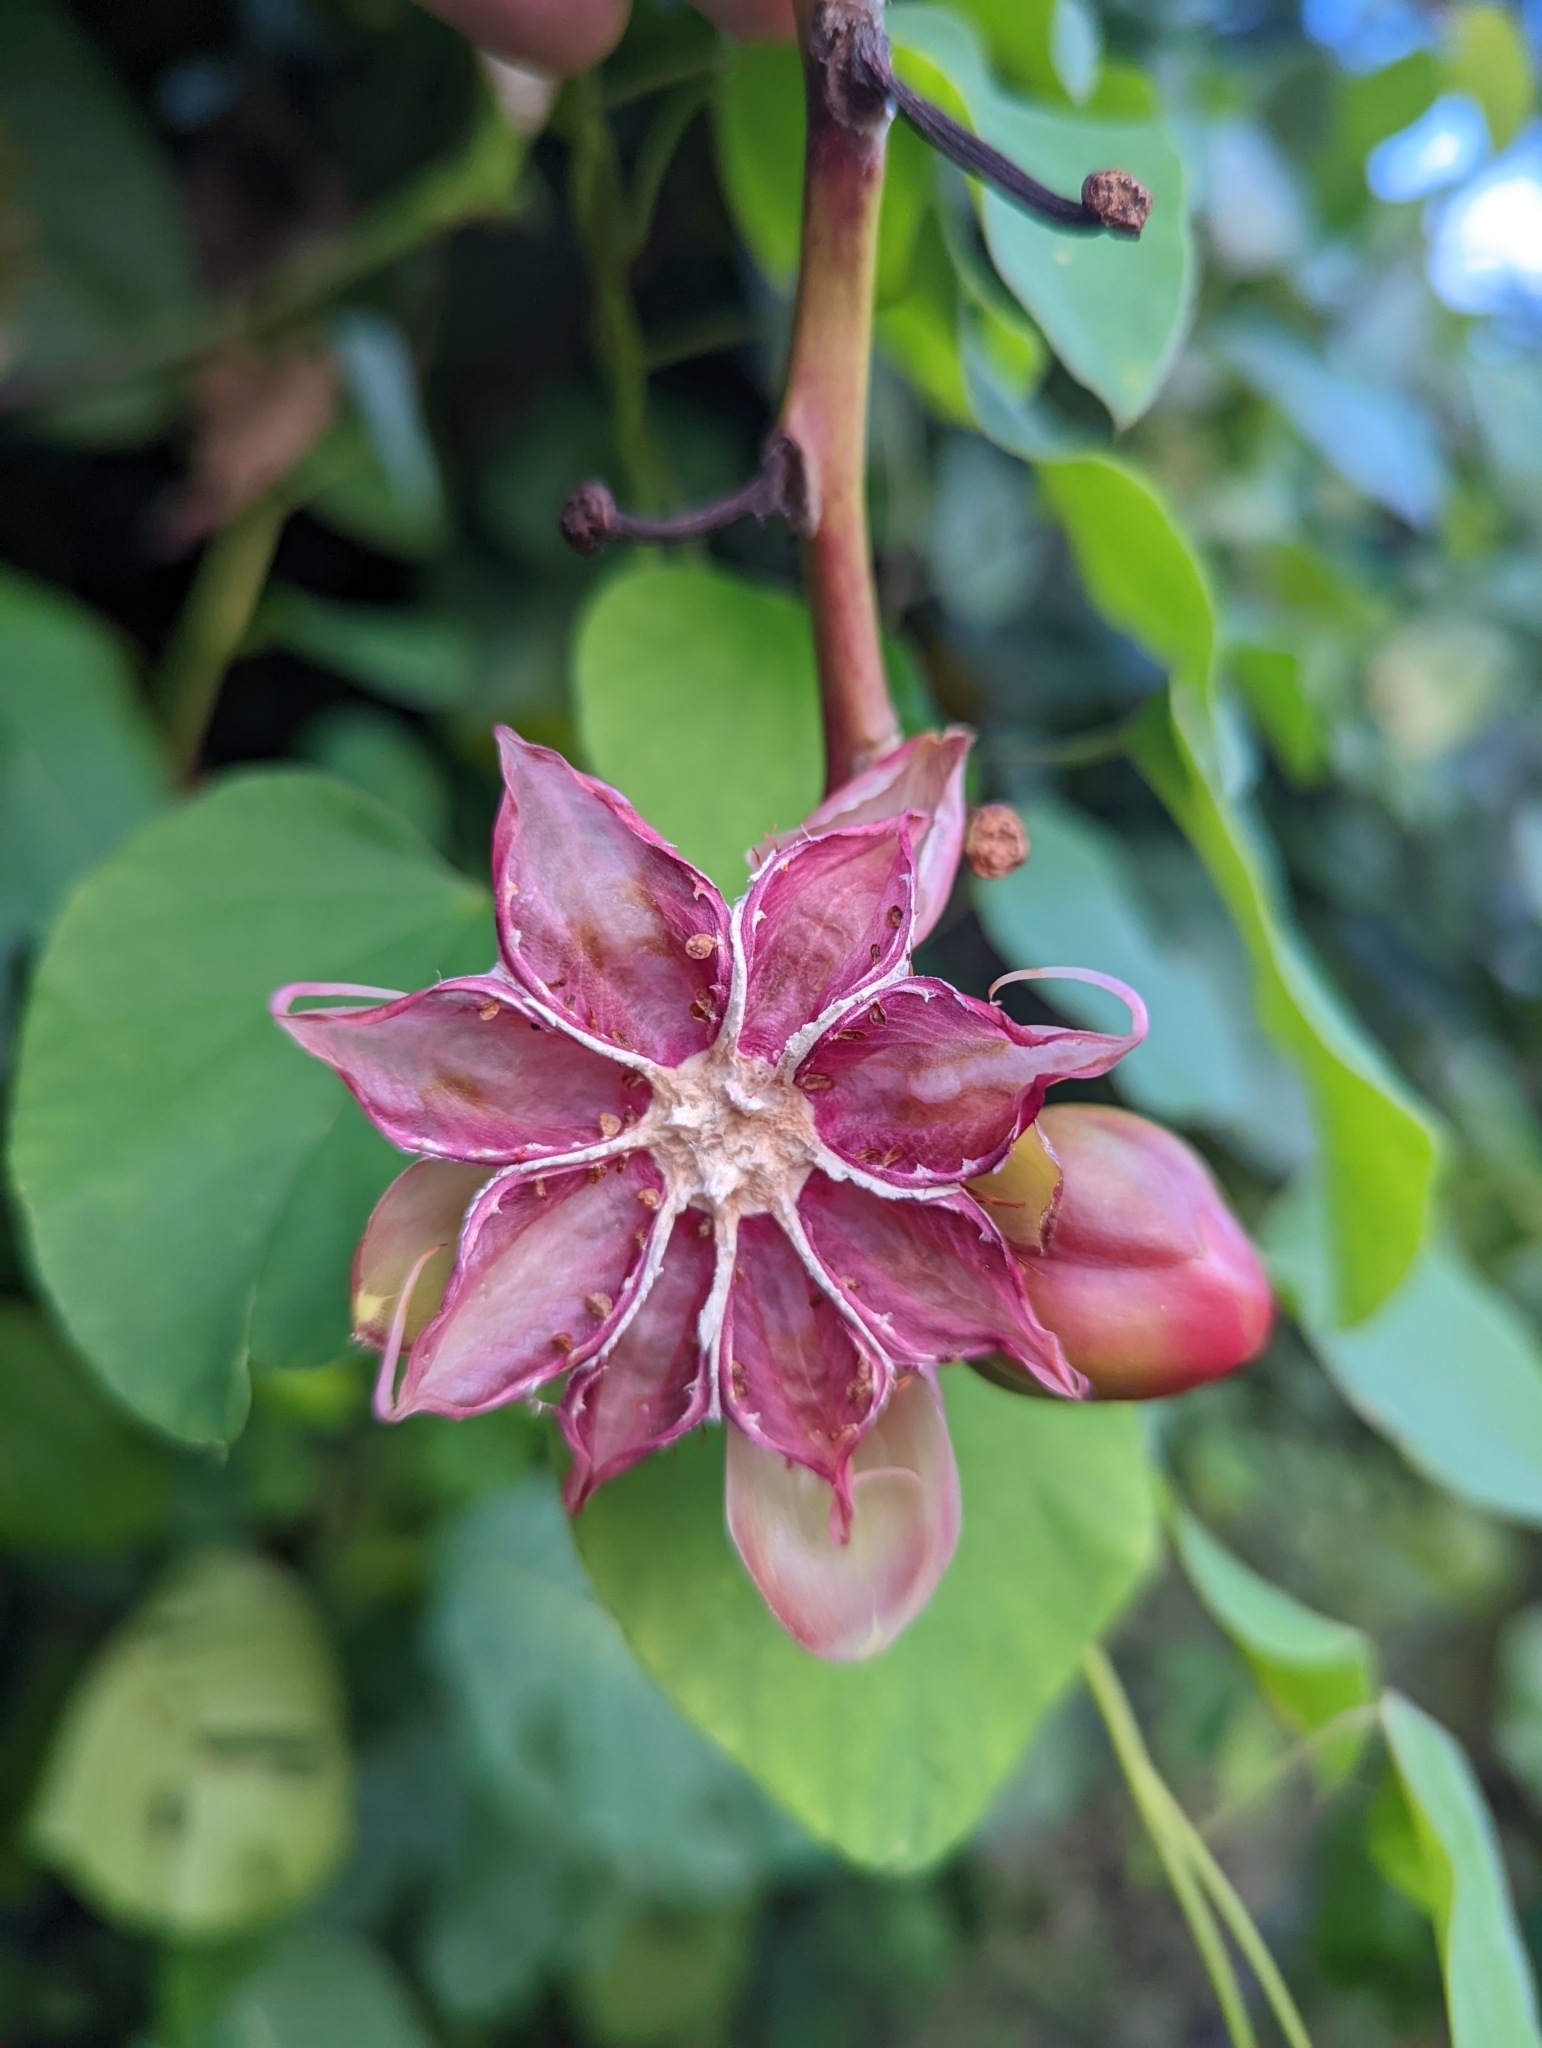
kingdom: Plantae
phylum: Tracheophyta
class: Magnoliopsida
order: Dilleniales
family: Dilleniaceae
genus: Dillenia
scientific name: Dillenia suffruticosa
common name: Shrubby dillenia
